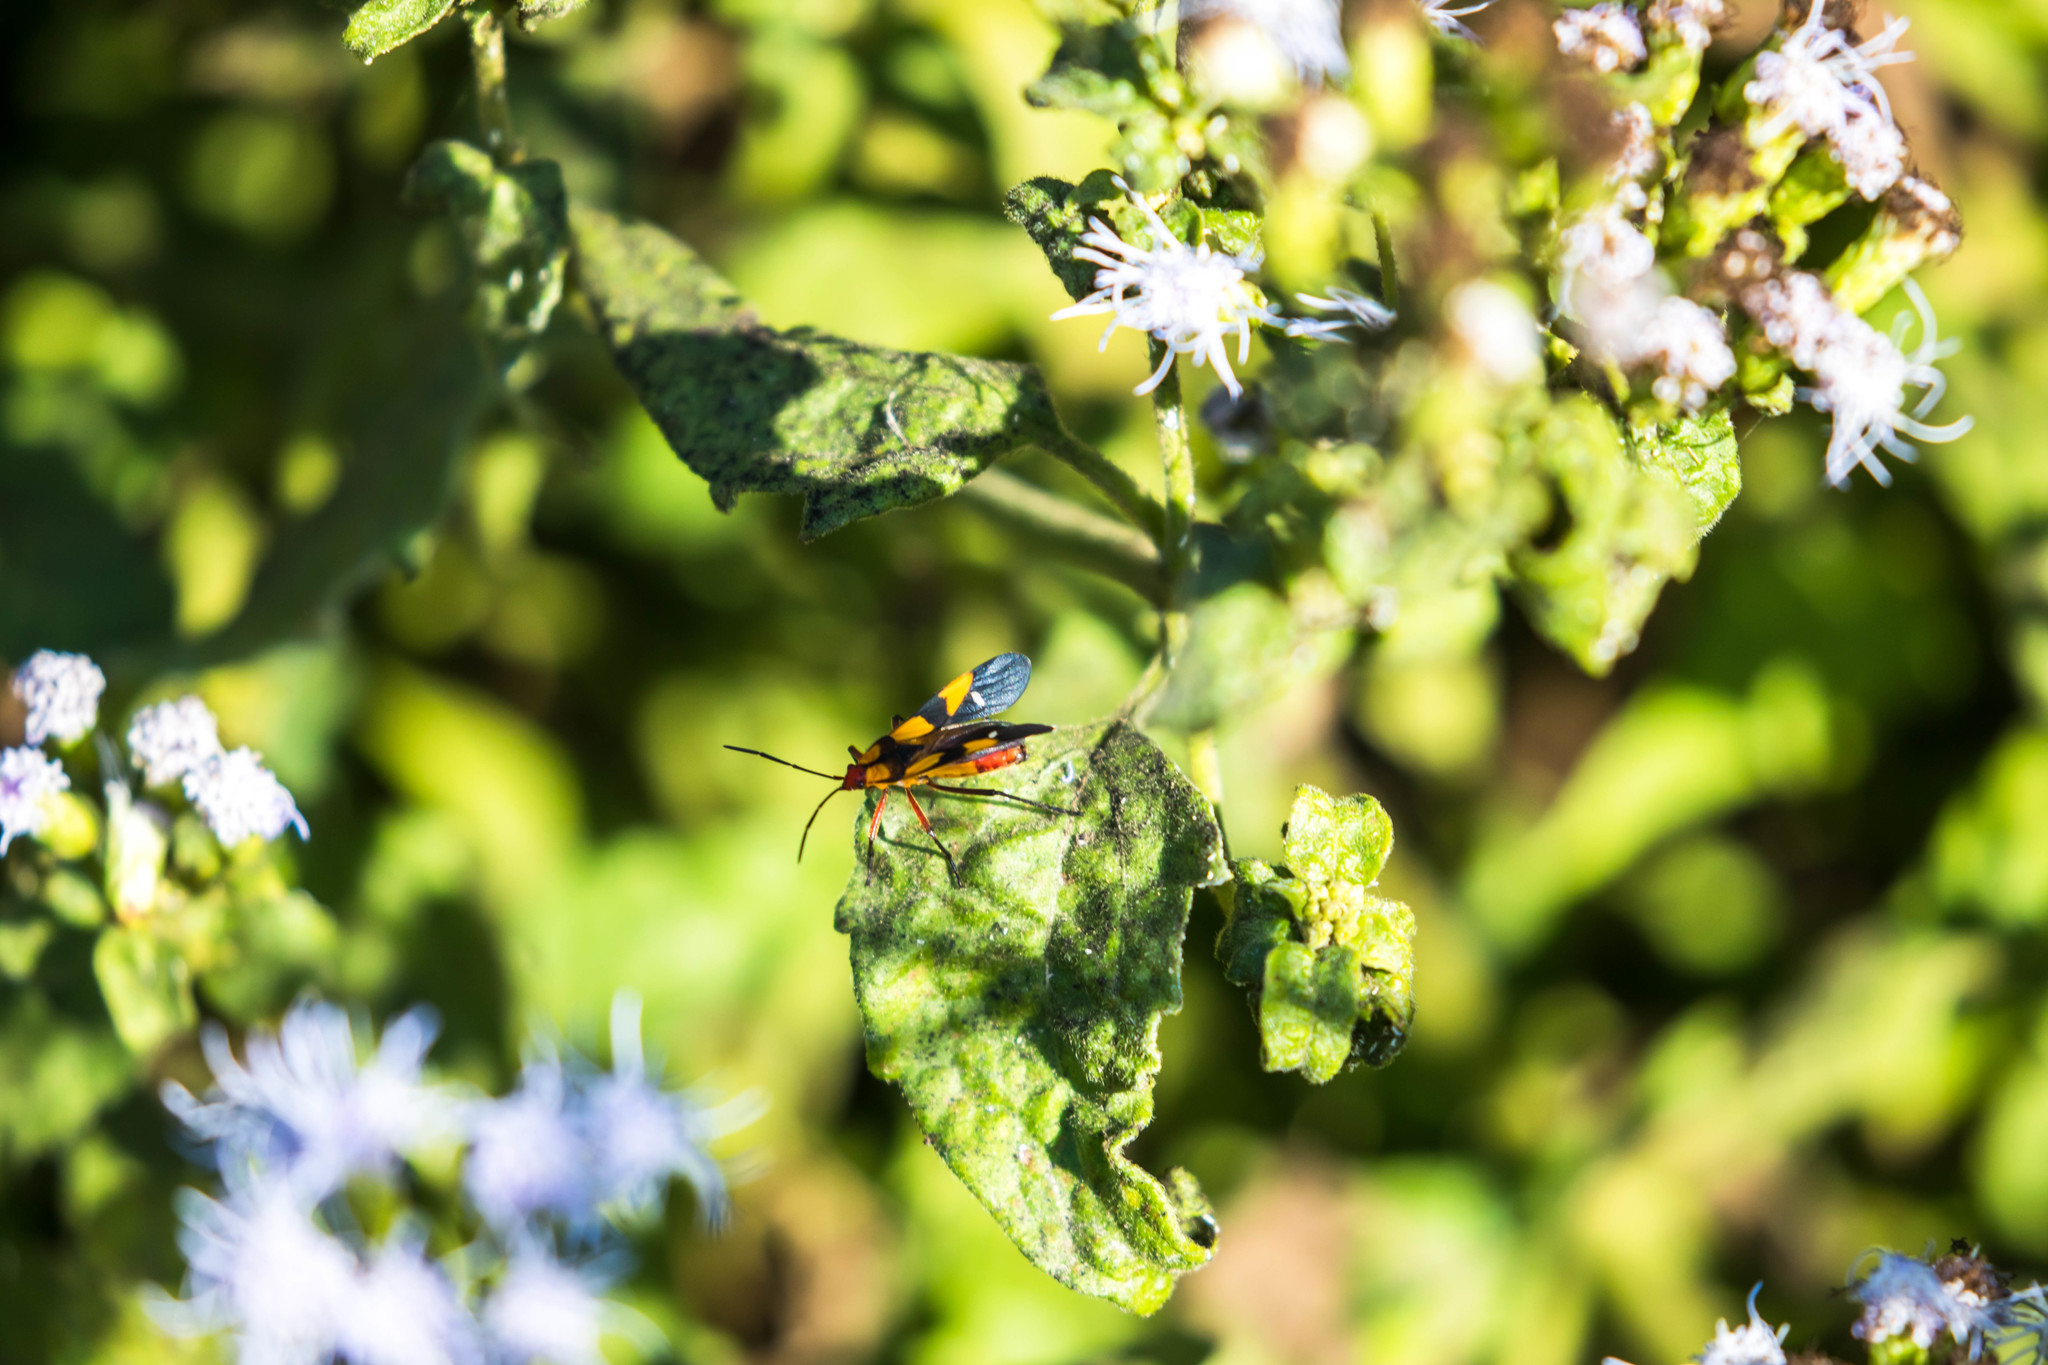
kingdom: Animalia
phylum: Arthropoda
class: Insecta
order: Hemiptera
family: Lygaeidae
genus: Oncopeltus
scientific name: Oncopeltus sexmaculatus
